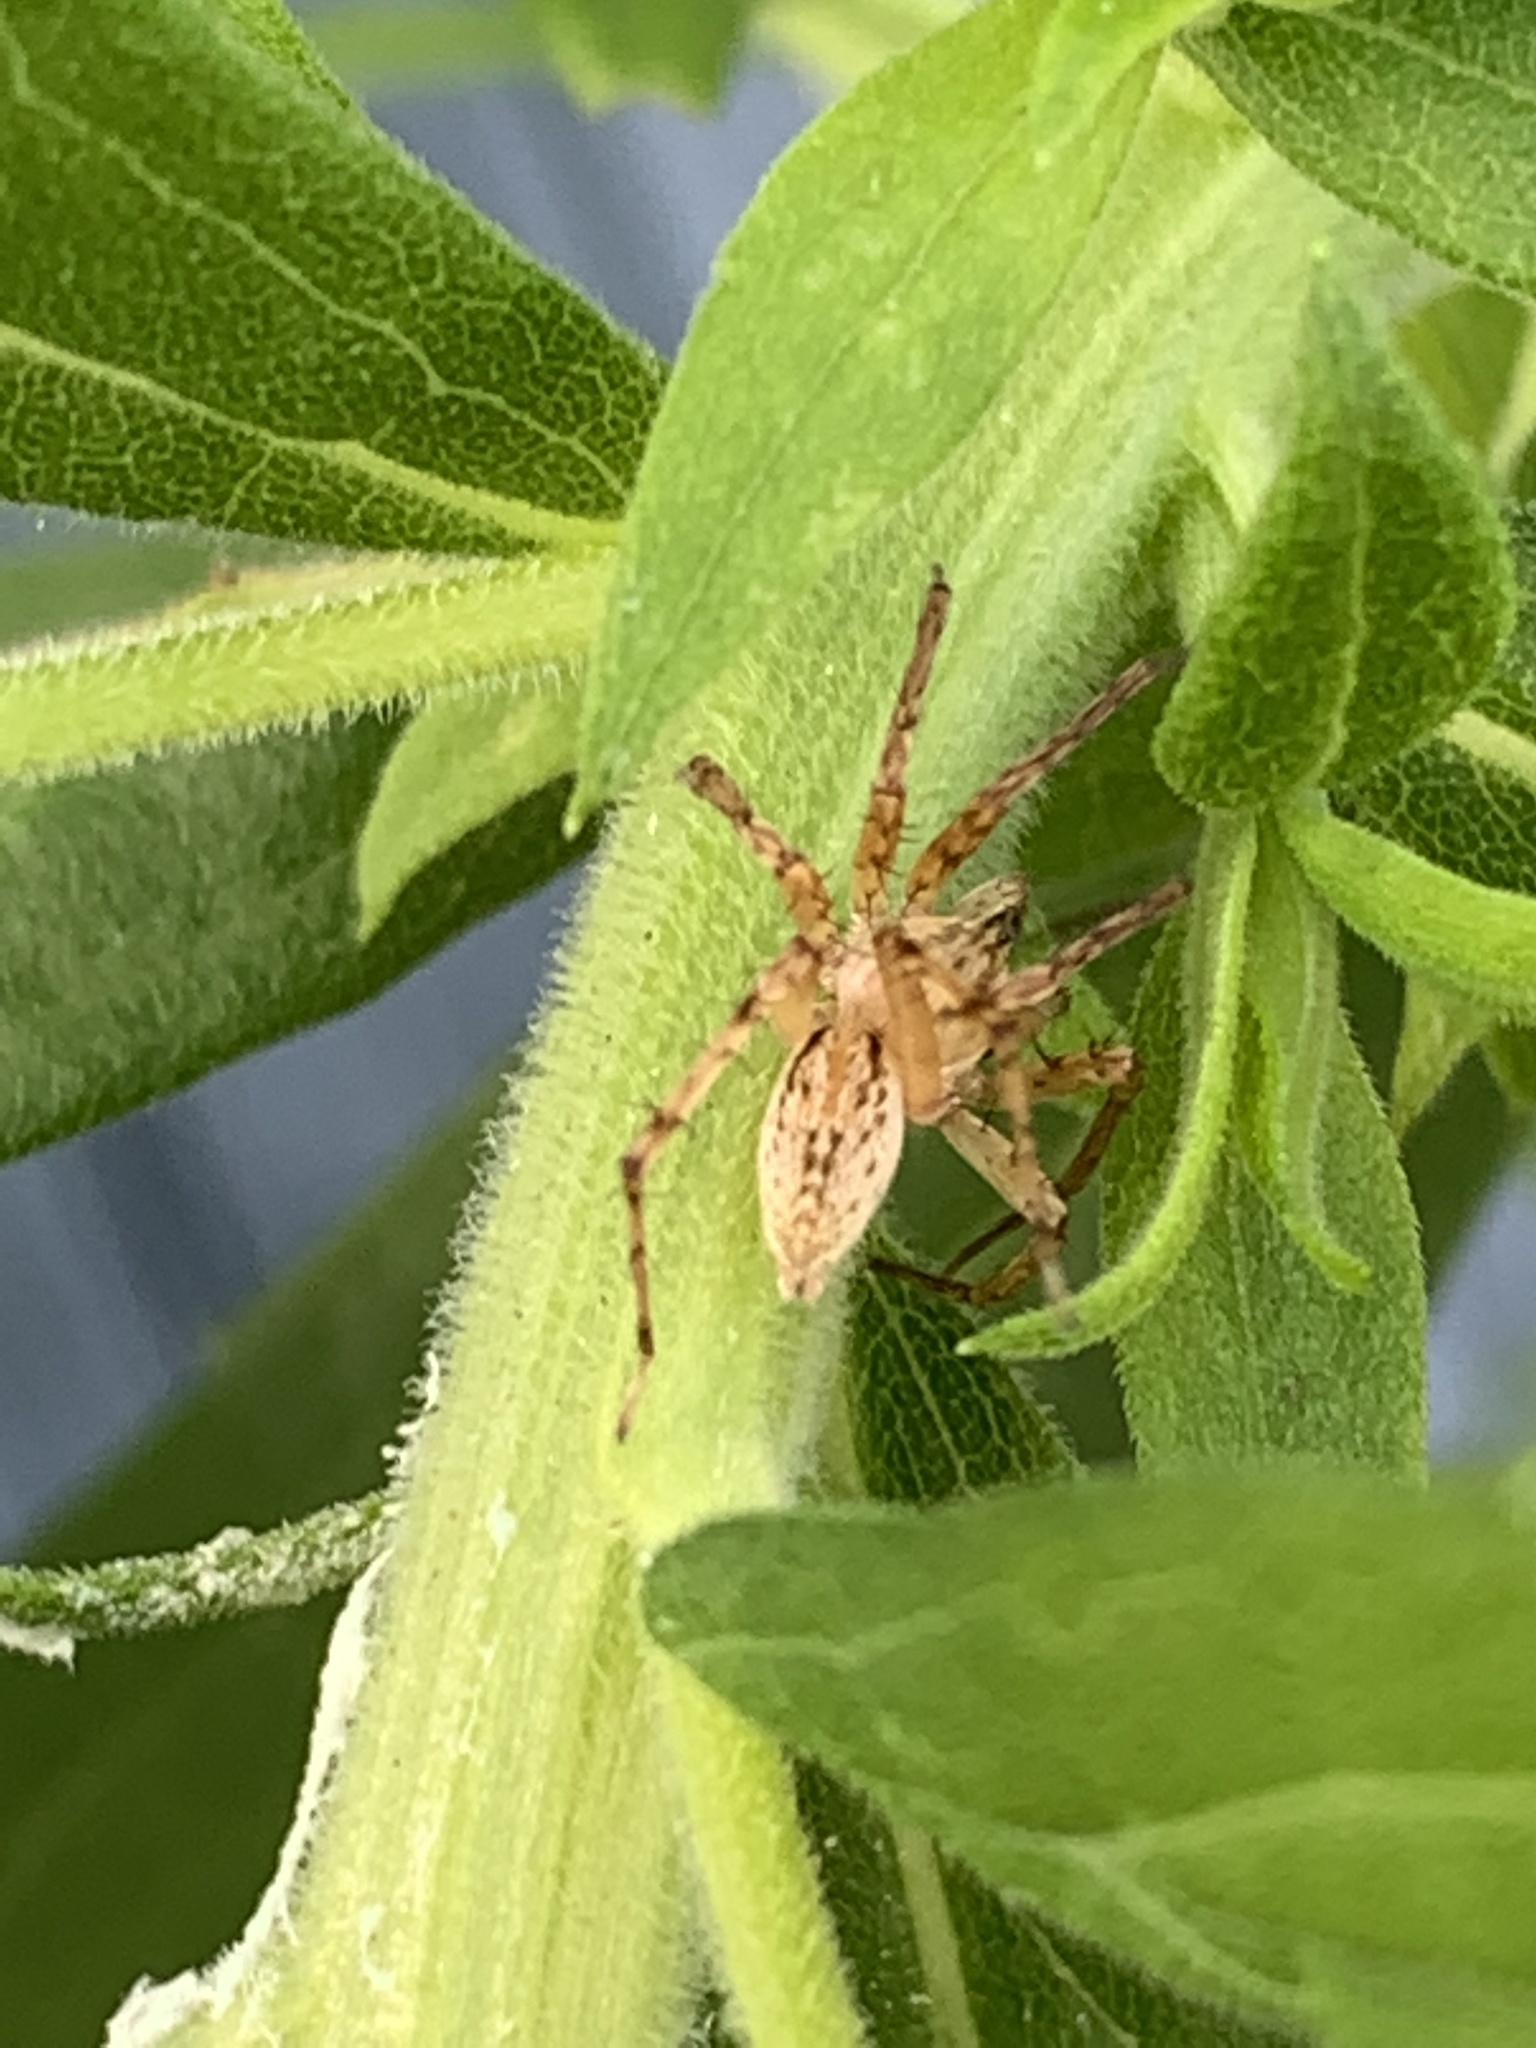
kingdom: Animalia
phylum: Arthropoda
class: Arachnida
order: Araneae
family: Anyphaenidae
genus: Anyphaena
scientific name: Anyphaena
